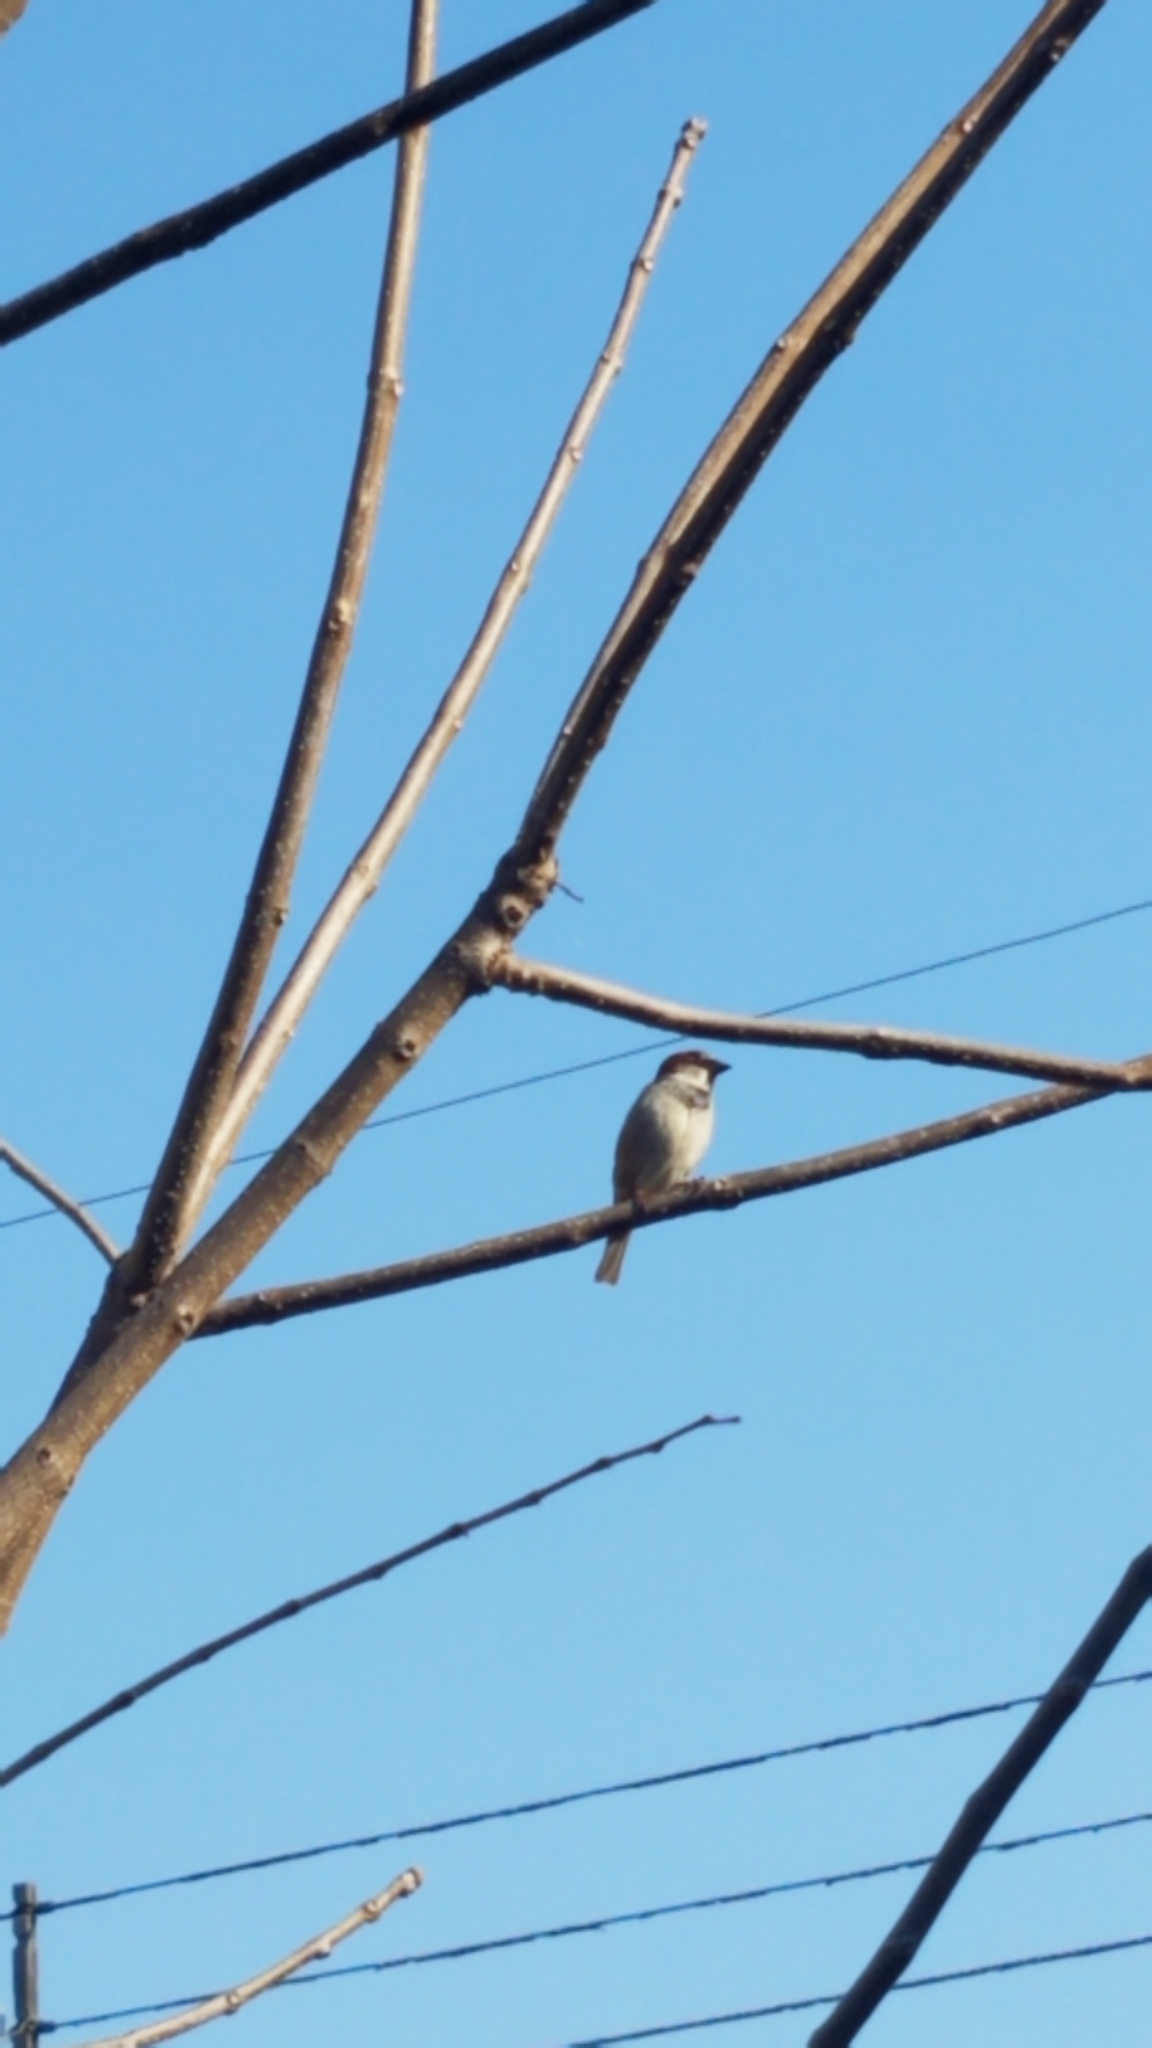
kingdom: Animalia
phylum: Chordata
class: Aves
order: Passeriformes
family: Passeridae
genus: Passer
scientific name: Passer domesticus
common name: House sparrow
